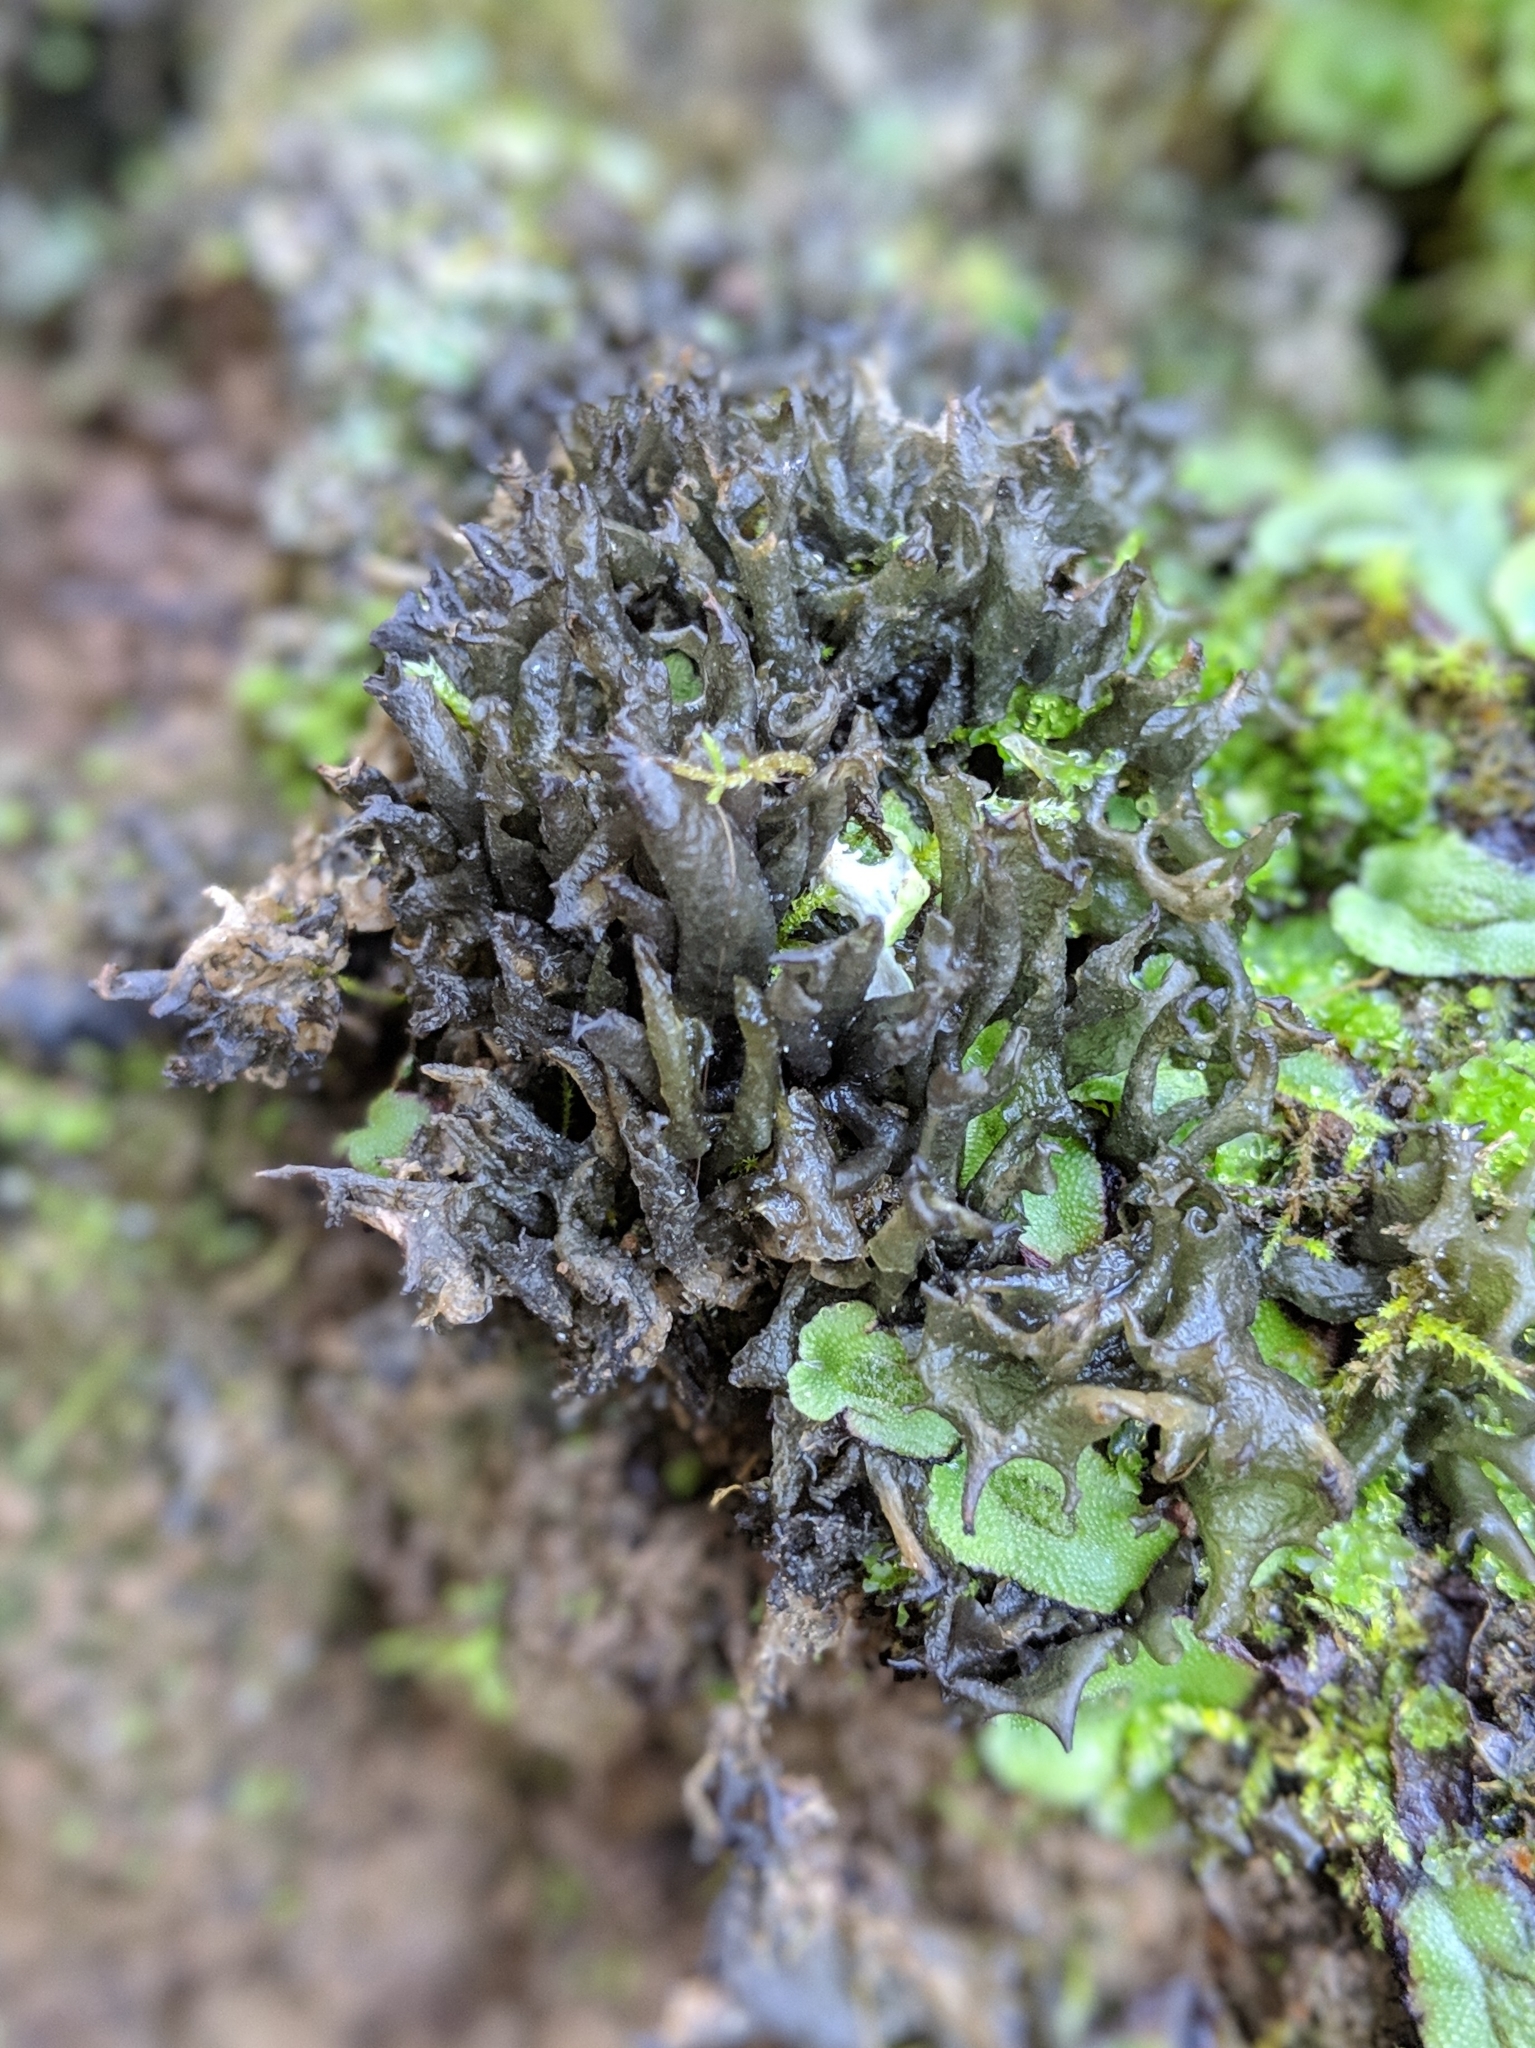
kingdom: Fungi
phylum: Ascomycota
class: Lecanoromycetes
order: Peltigerales
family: Collemataceae
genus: Scytinium
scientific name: Scytinium palmatum
